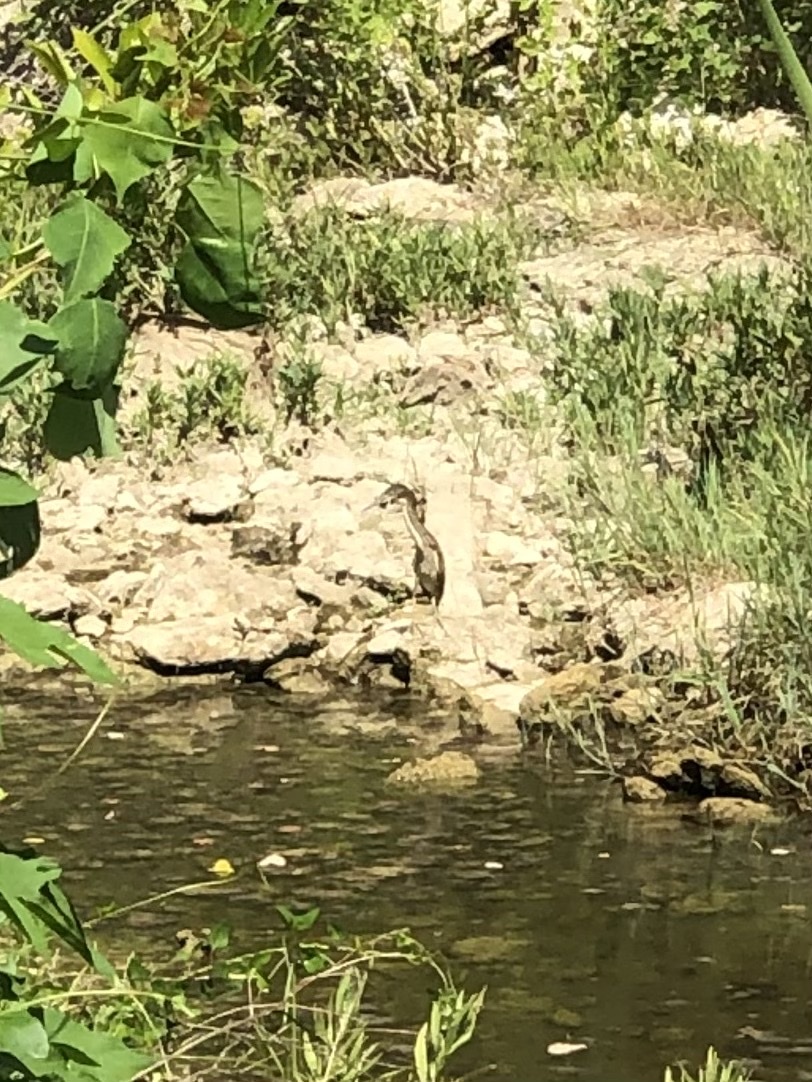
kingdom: Animalia
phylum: Chordata
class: Aves
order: Pelecaniformes
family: Ardeidae
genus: Butorides
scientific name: Butorides virescens
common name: Green heron
